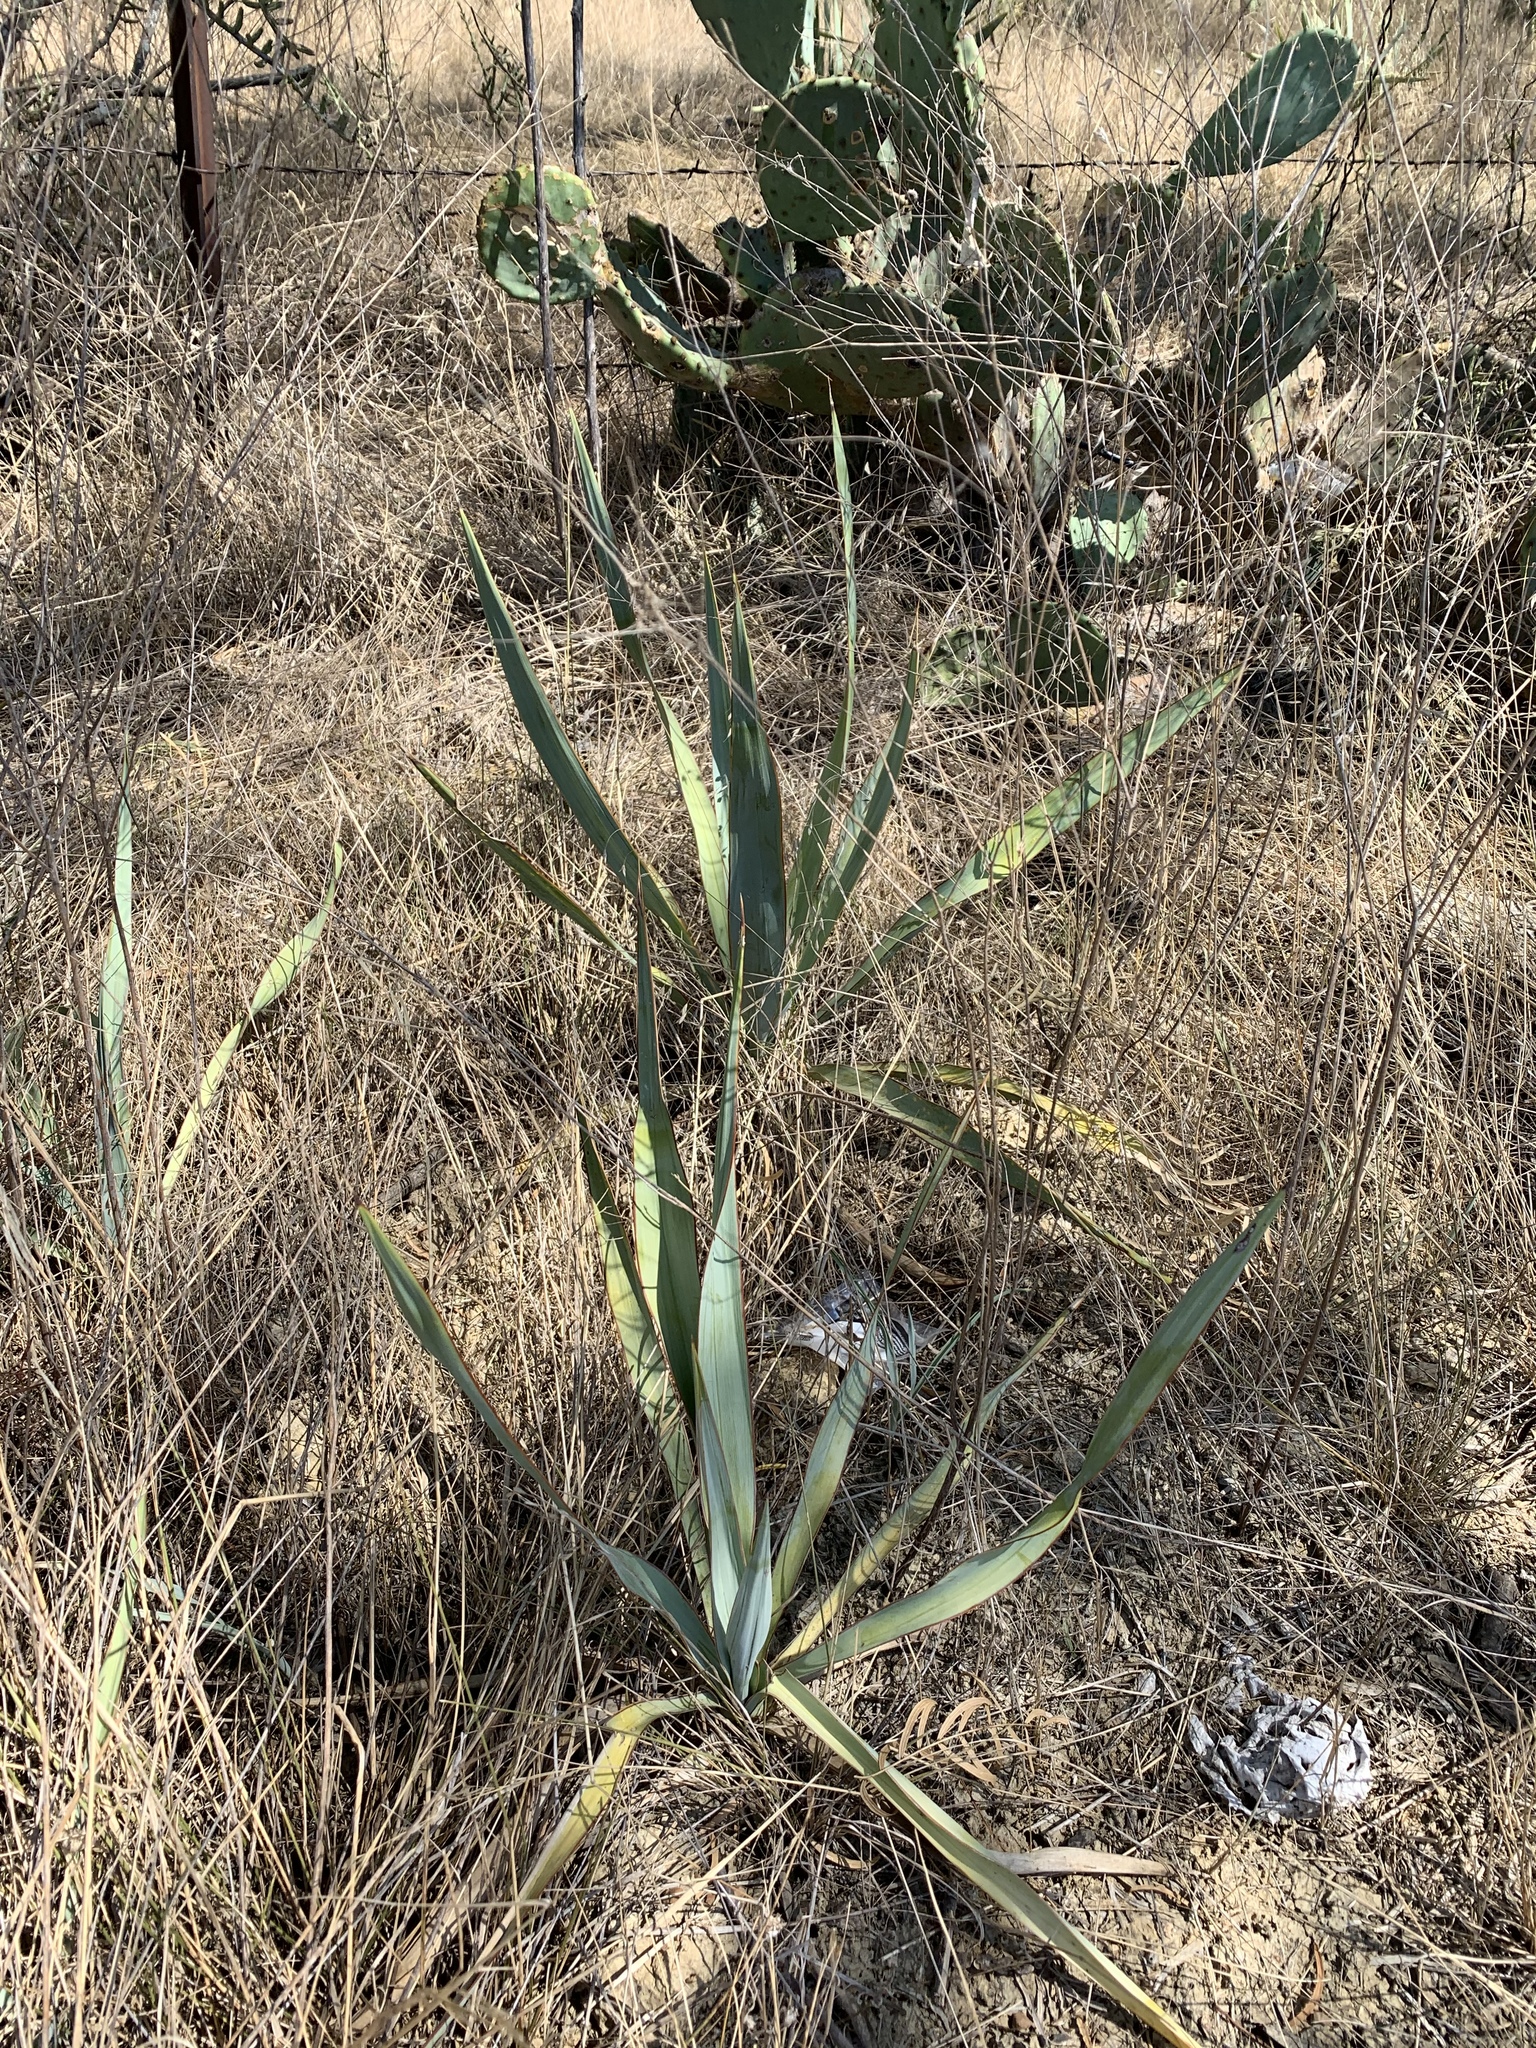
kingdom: Plantae
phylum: Tracheophyta
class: Liliopsida
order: Asparagales
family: Asparagaceae
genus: Yucca
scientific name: Yucca pallida
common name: Pale leaf yucca
